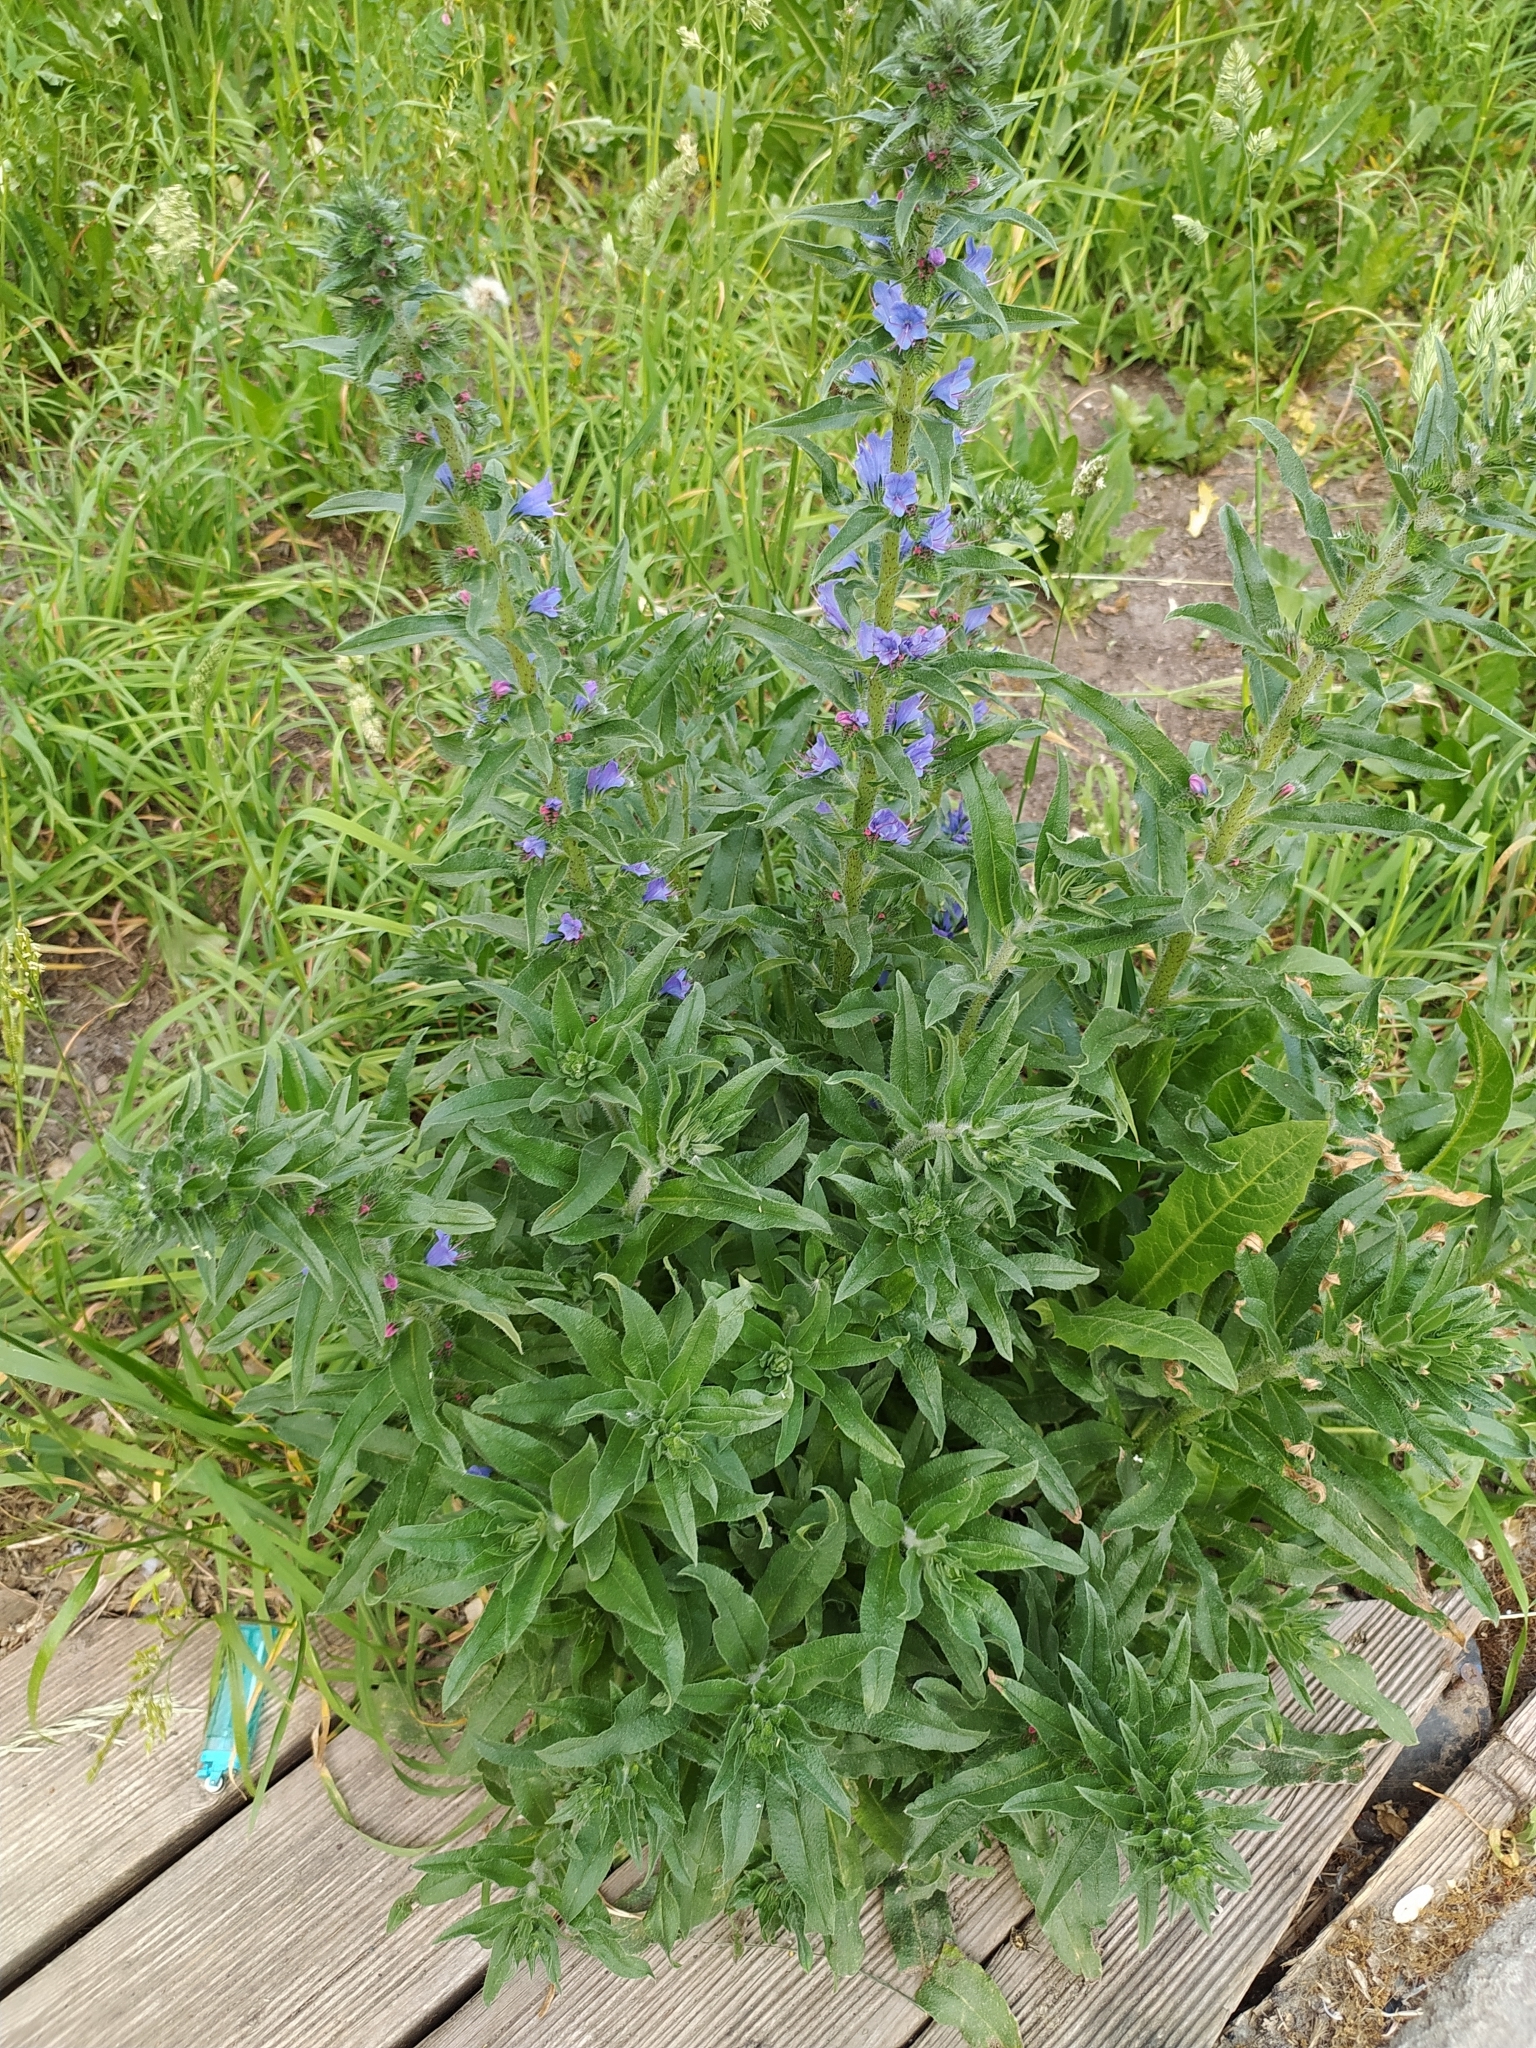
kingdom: Plantae
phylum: Tracheophyta
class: Magnoliopsida
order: Boraginales
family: Boraginaceae
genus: Echium
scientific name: Echium vulgare
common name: Common viper's bugloss
